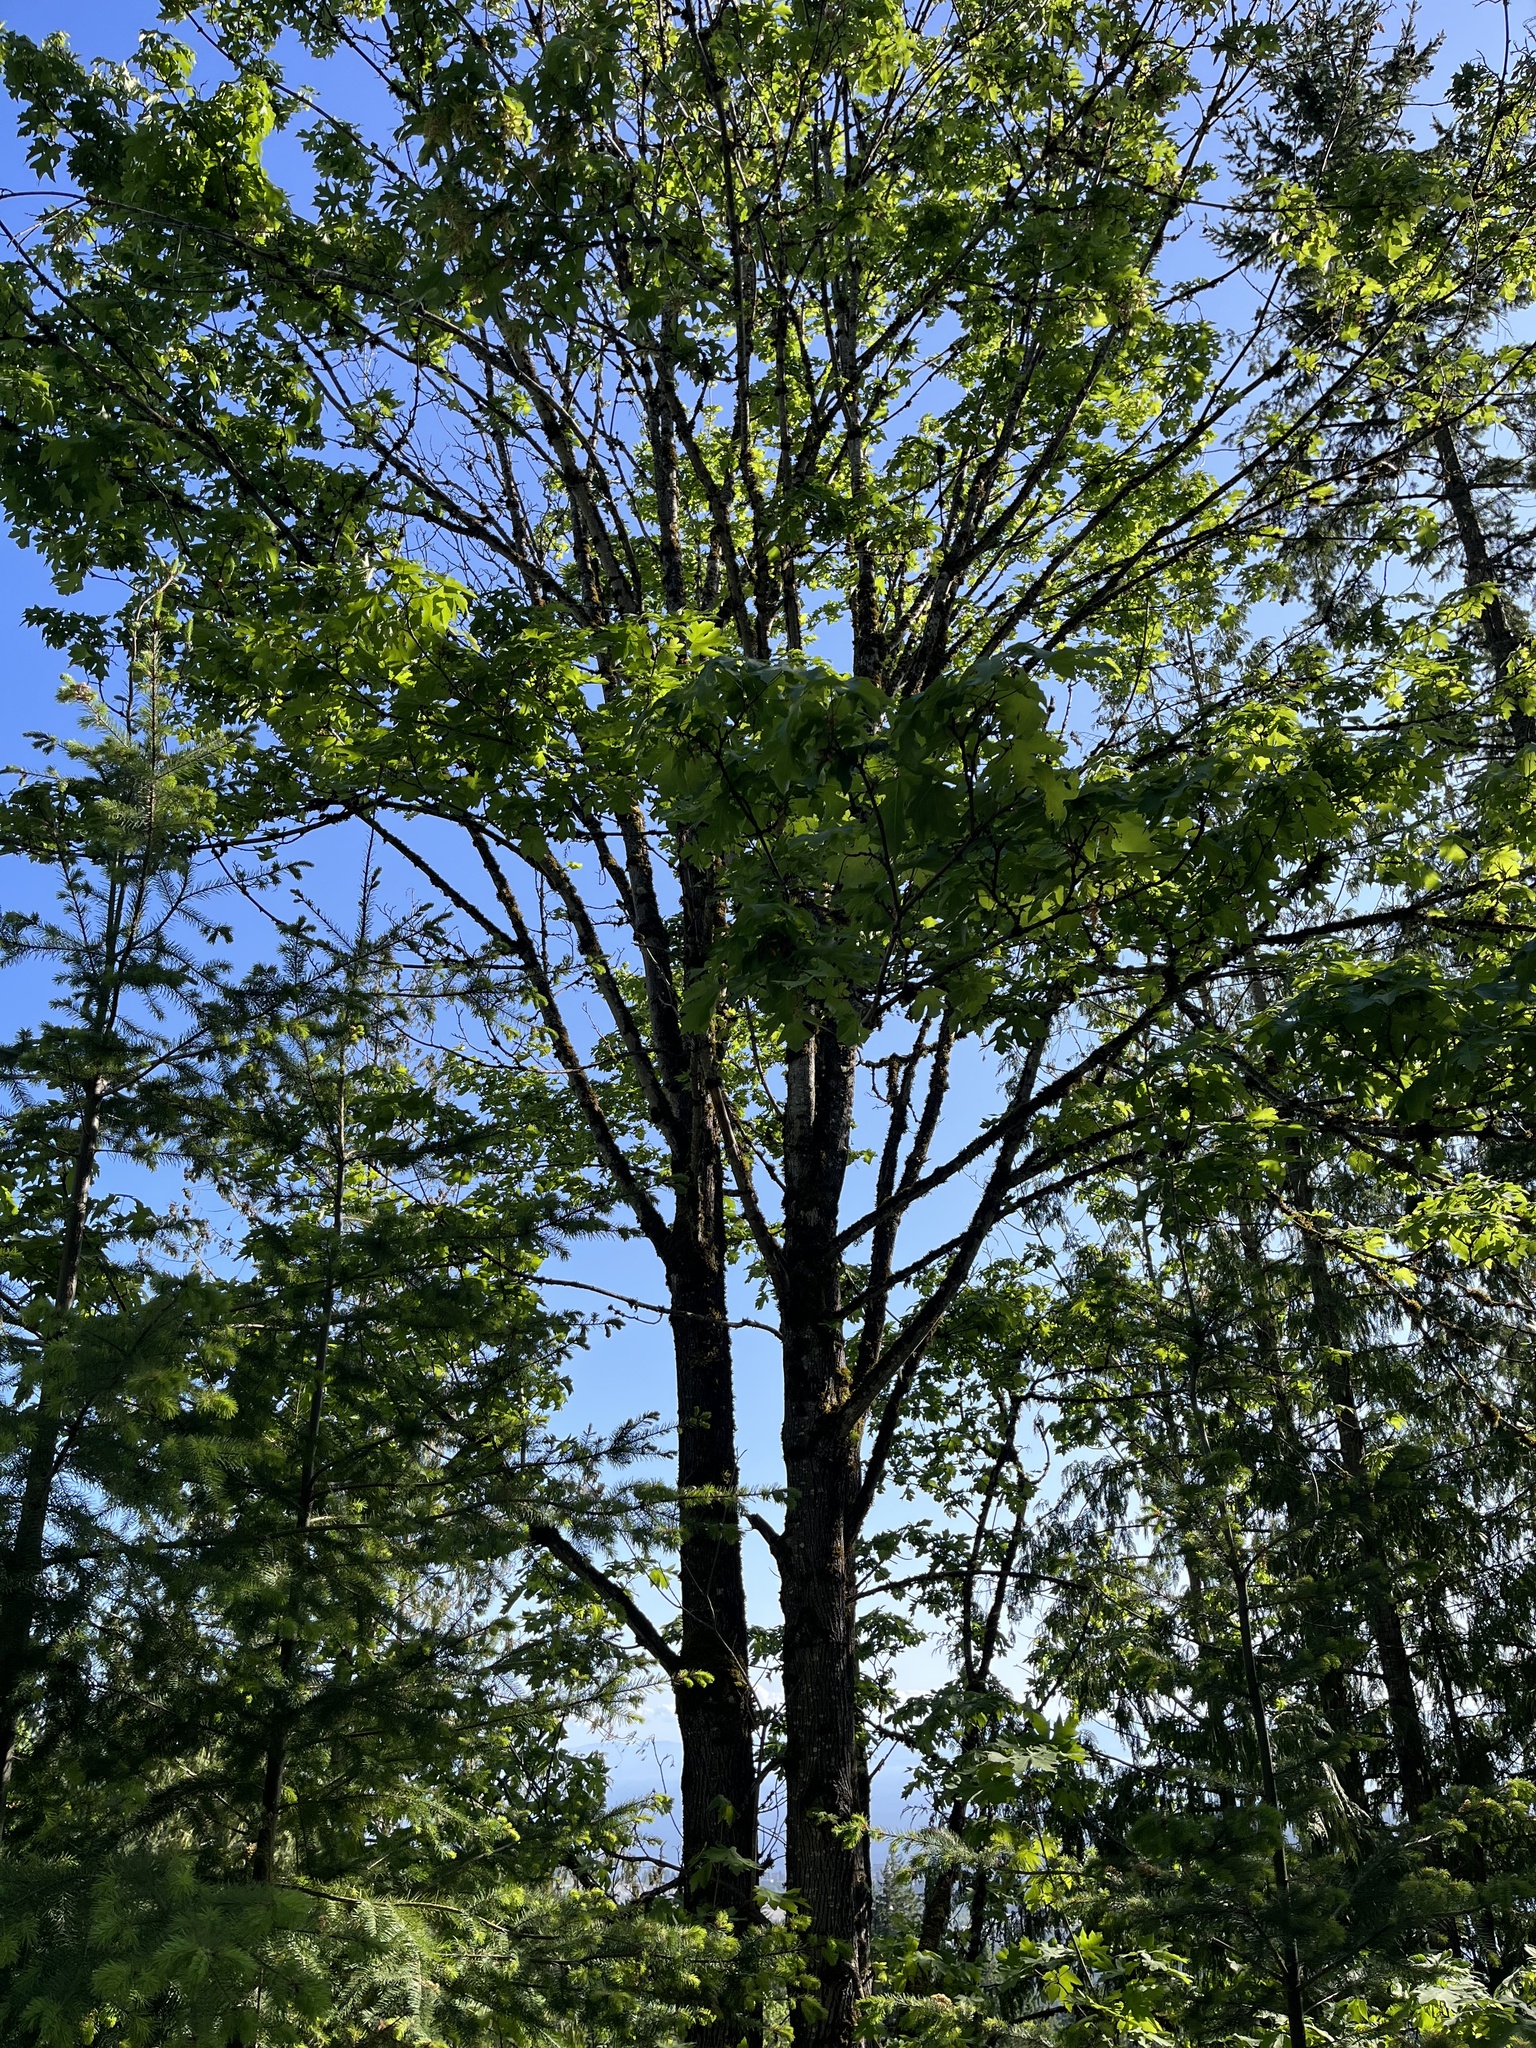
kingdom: Plantae
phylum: Tracheophyta
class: Magnoliopsida
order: Sapindales
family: Sapindaceae
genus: Acer
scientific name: Acer macrophyllum
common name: Oregon maple
